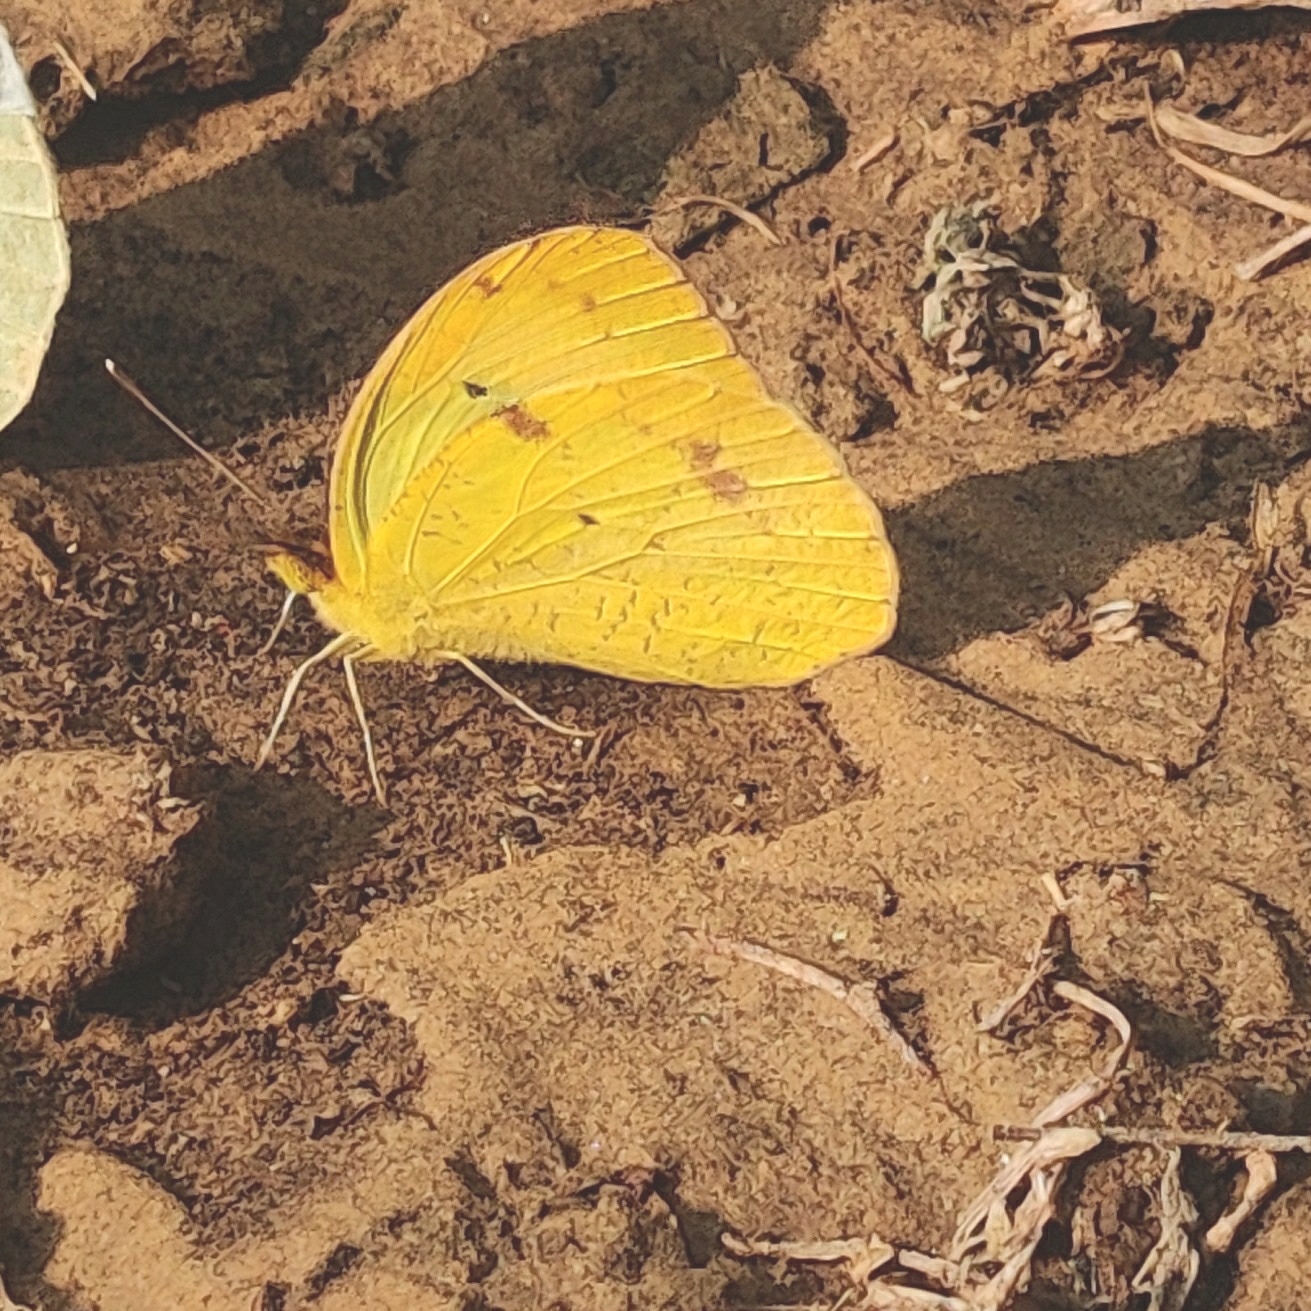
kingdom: Animalia
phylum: Arthropoda
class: Insecta
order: Lepidoptera
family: Pieridae
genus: Ixias
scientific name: Ixias pyrene
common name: Yellow orange tip
